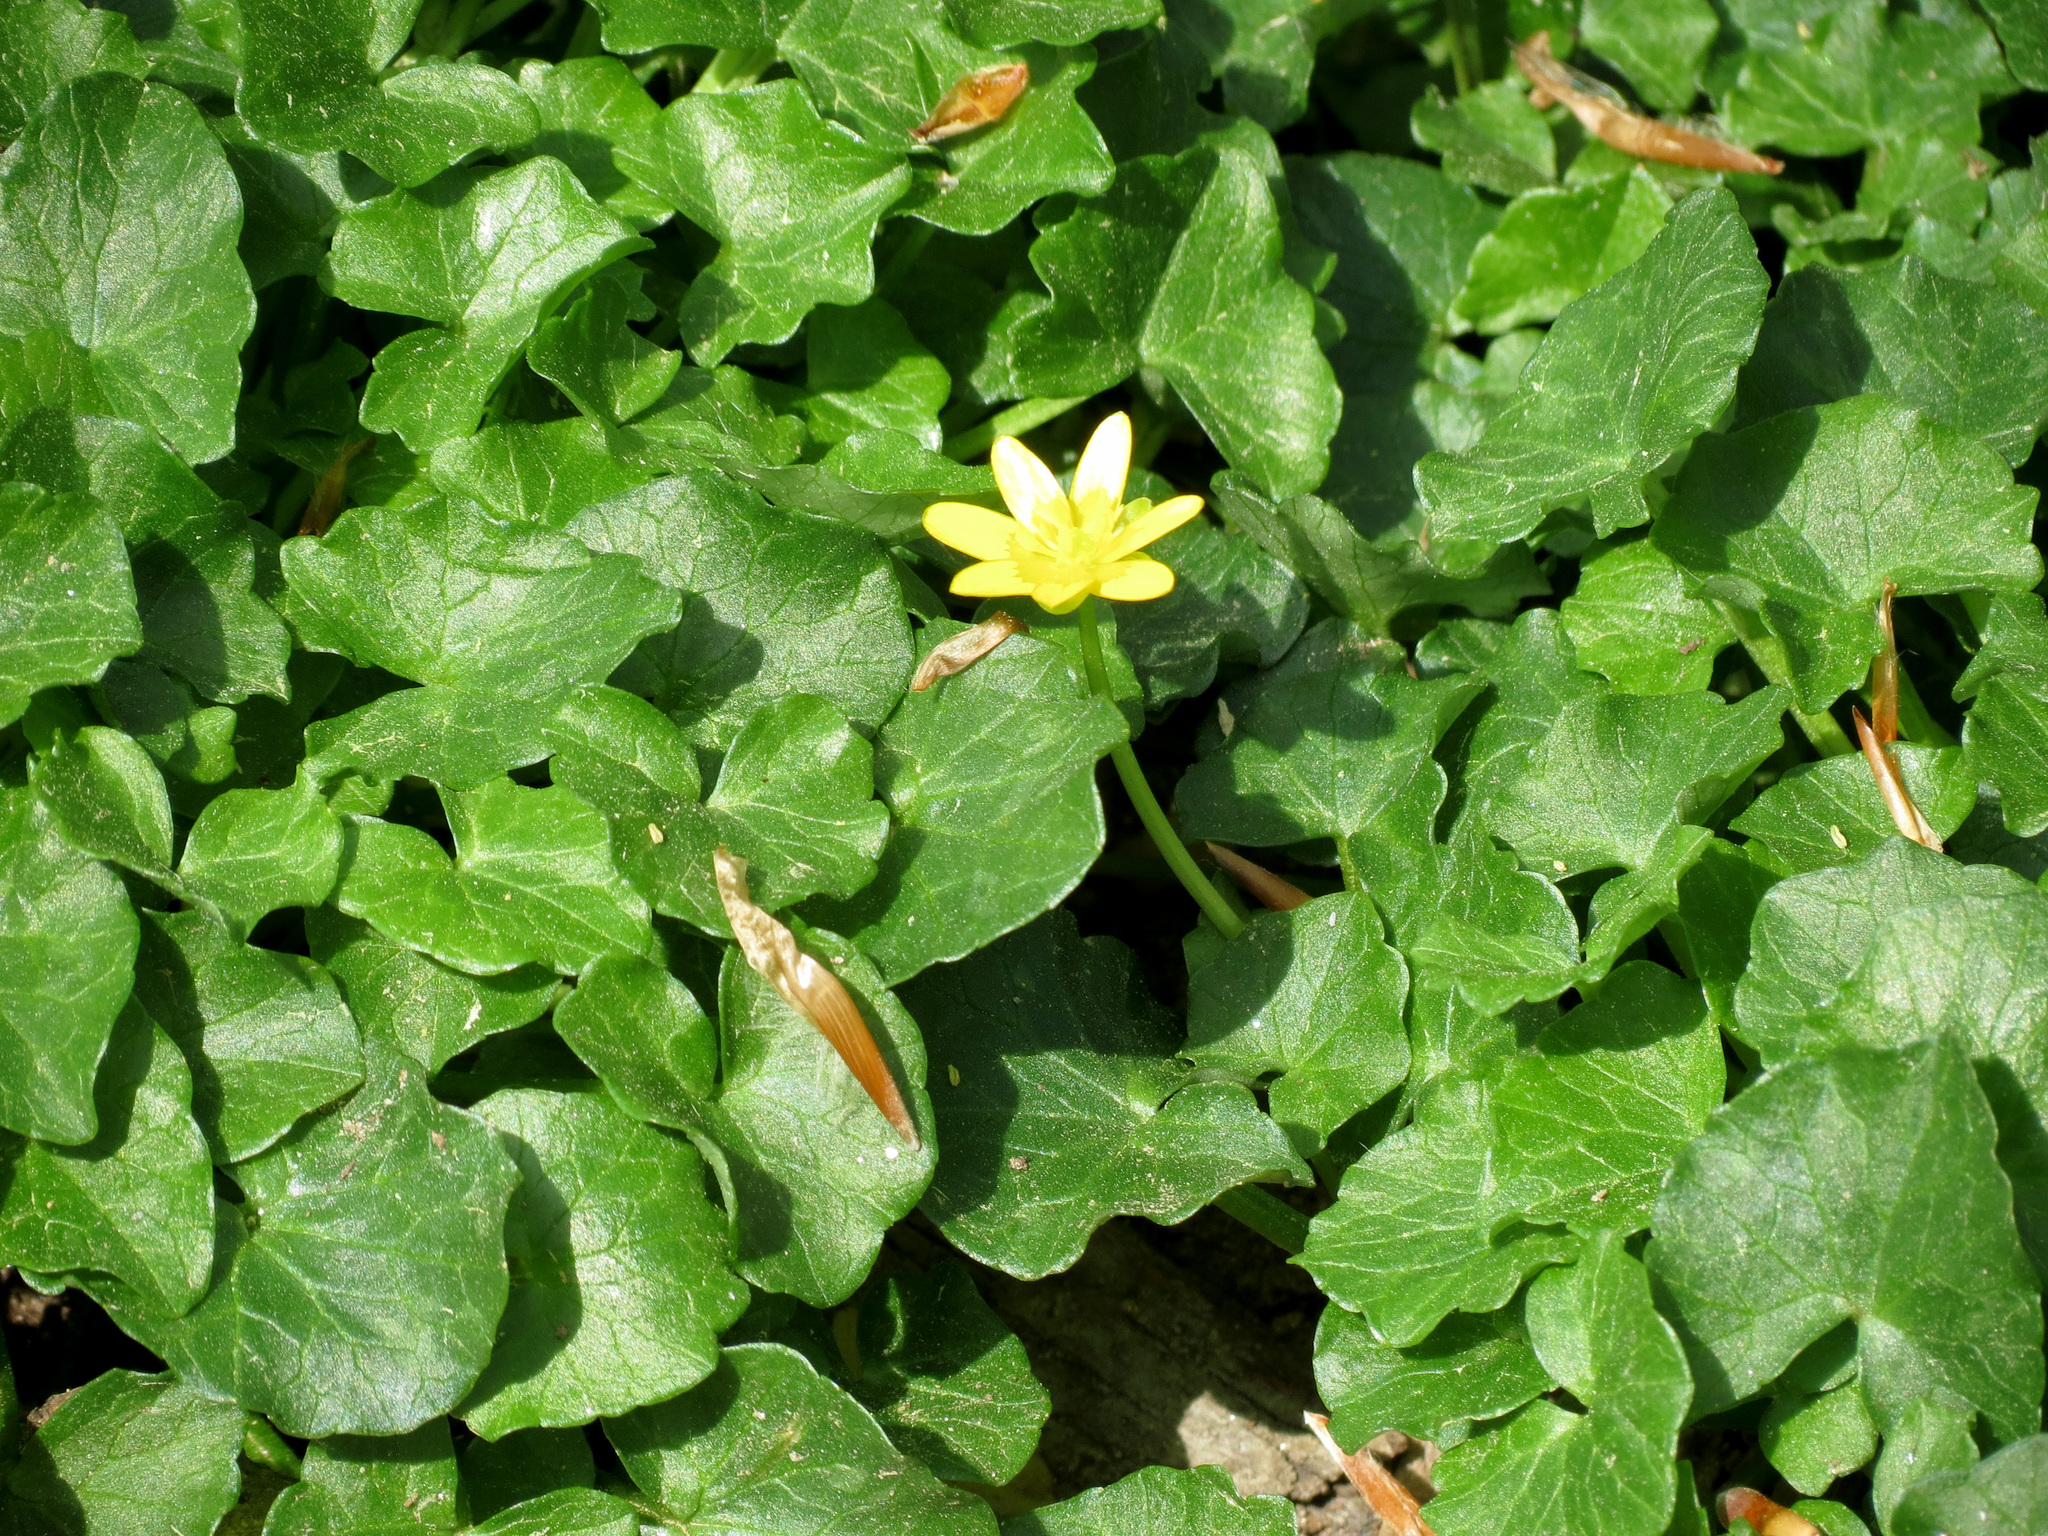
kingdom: Plantae
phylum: Tracheophyta
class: Magnoliopsida
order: Ranunculales
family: Ranunculaceae
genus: Ficaria
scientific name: Ficaria verna
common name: Lesser celandine
